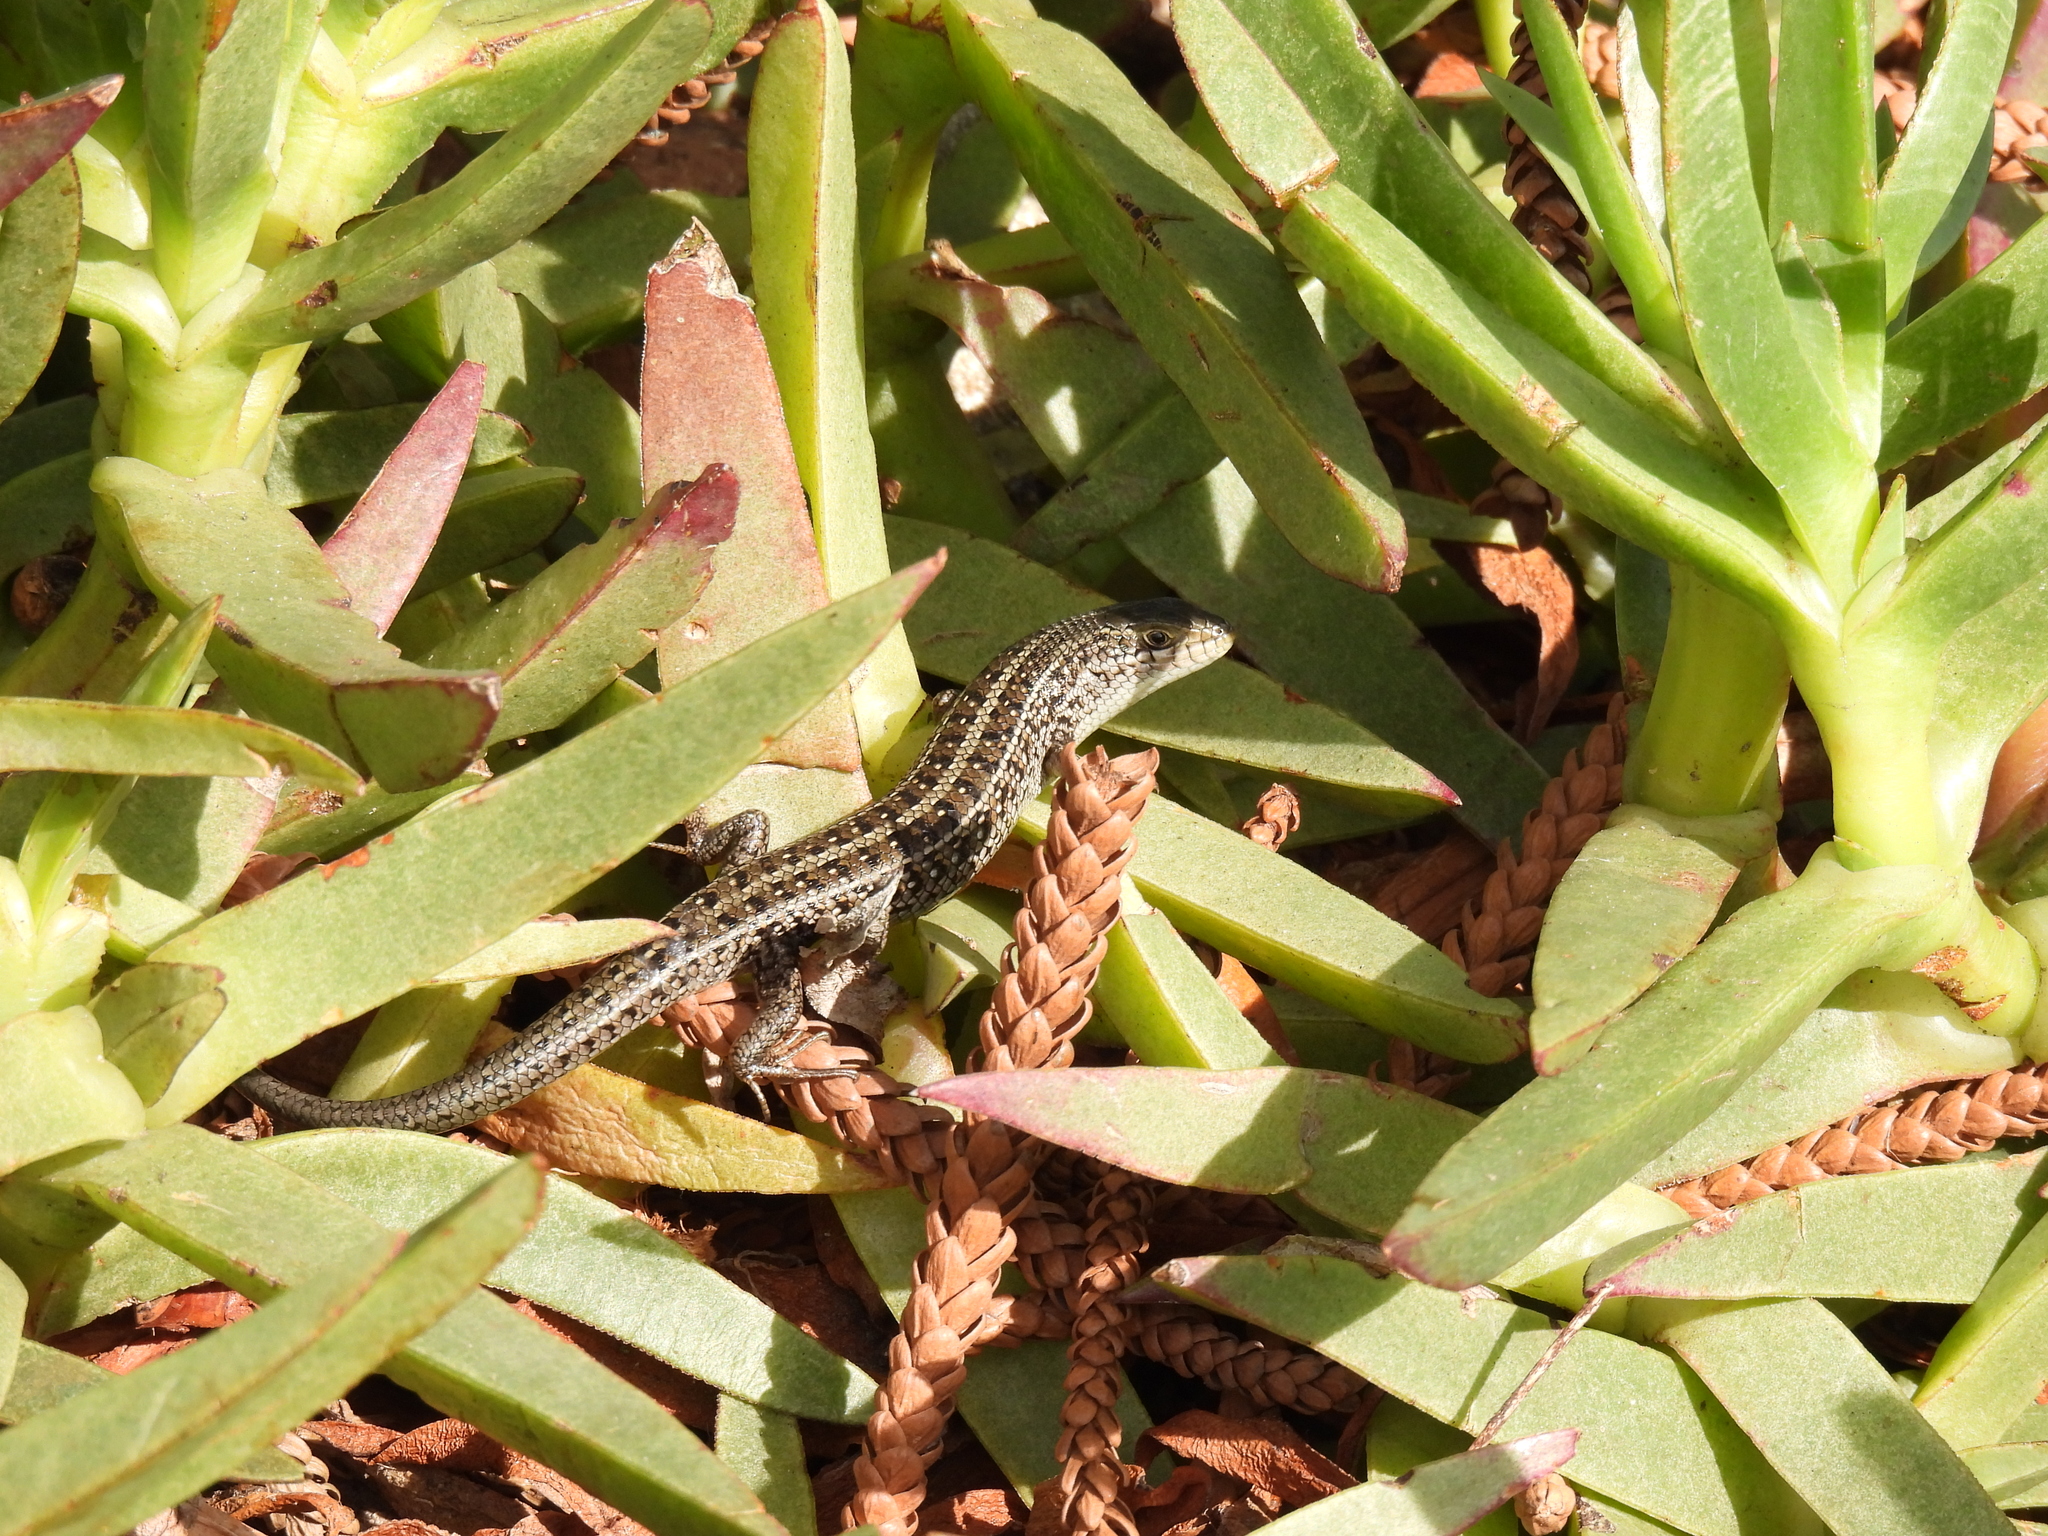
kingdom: Animalia
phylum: Chordata
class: Squamata
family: Scincidae
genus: Trachylepis
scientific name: Trachylepis capensis
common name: Cape skink
